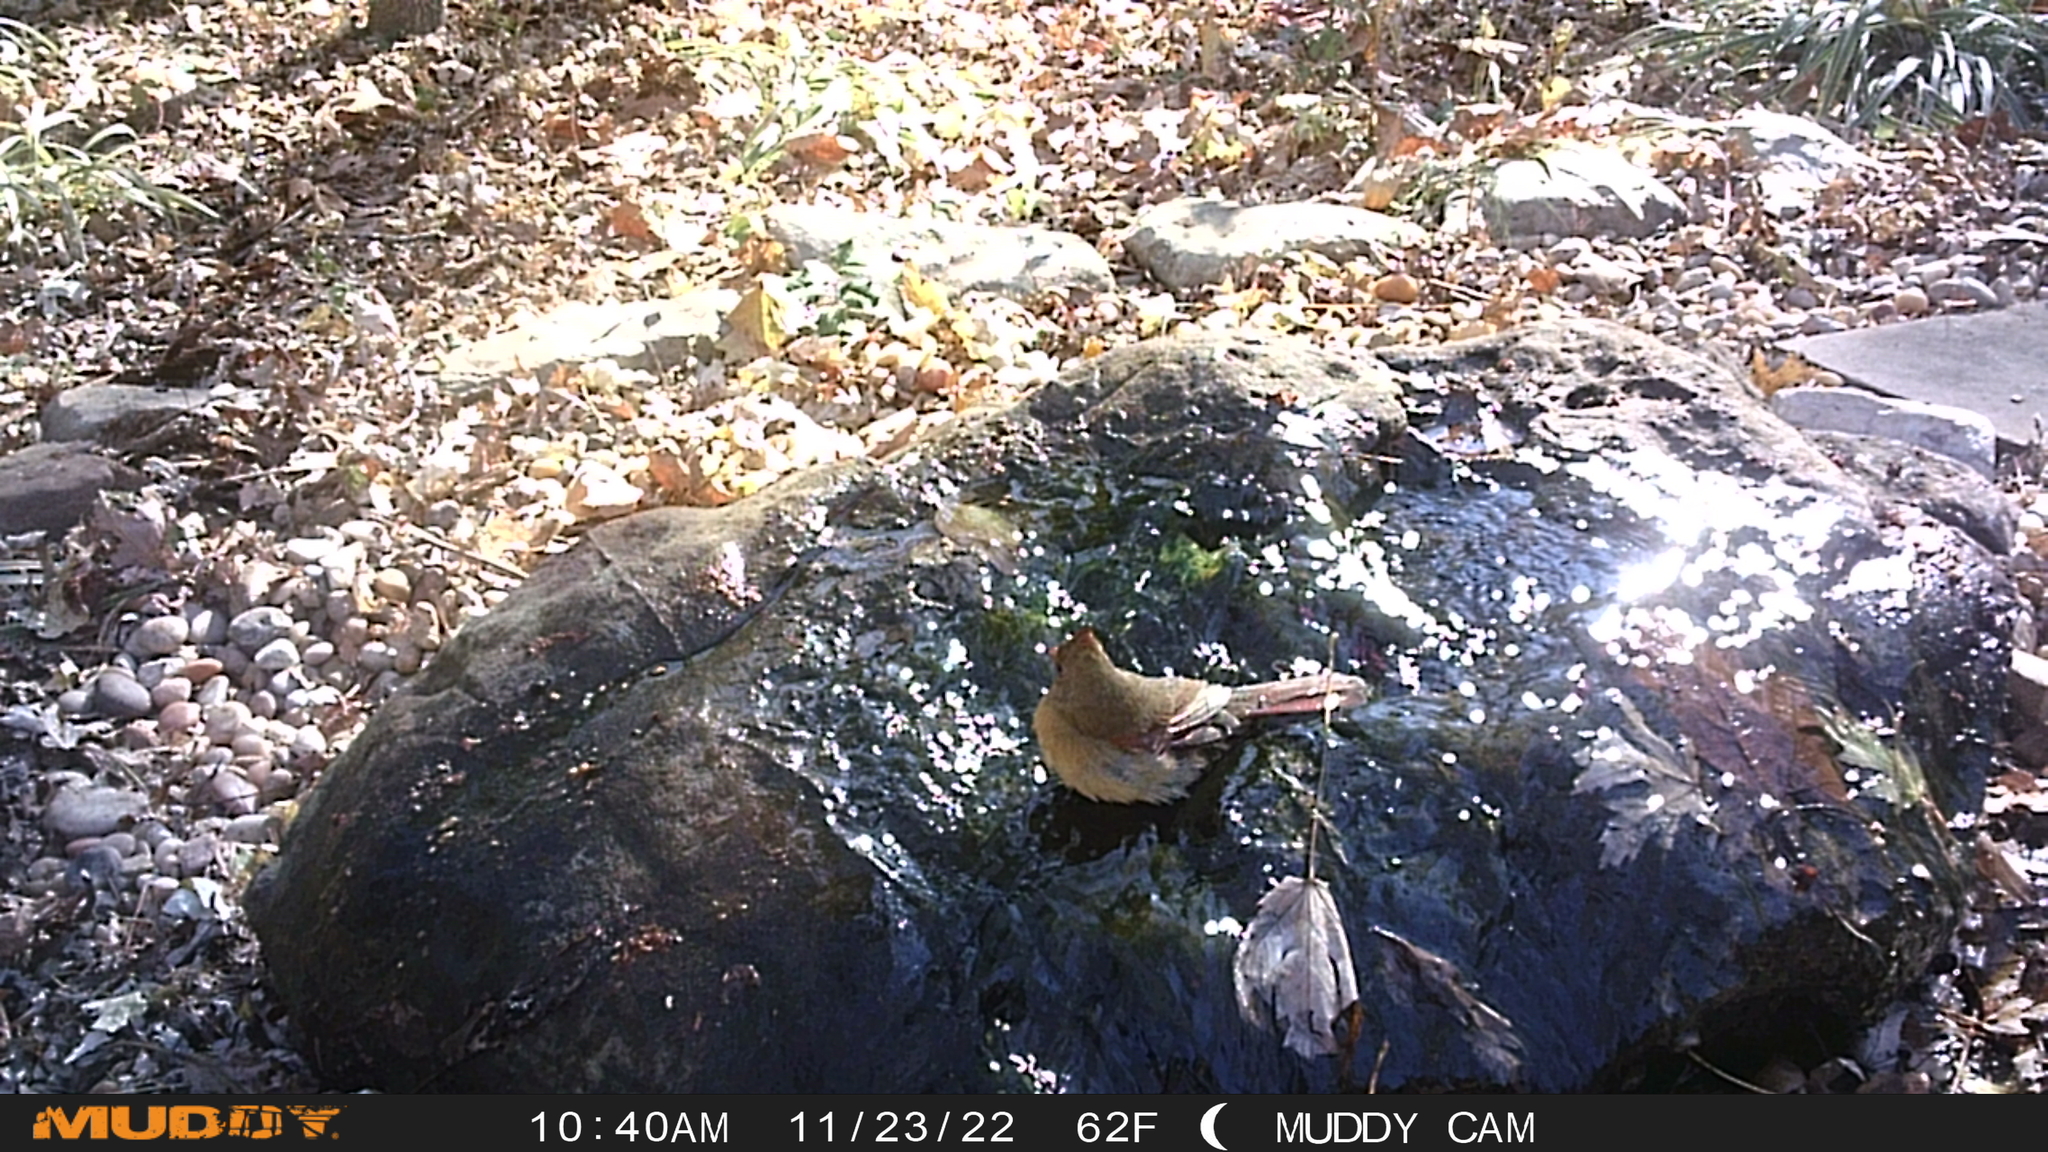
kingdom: Animalia
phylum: Chordata
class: Aves
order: Passeriformes
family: Cardinalidae
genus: Cardinalis
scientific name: Cardinalis cardinalis
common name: Northern cardinal
